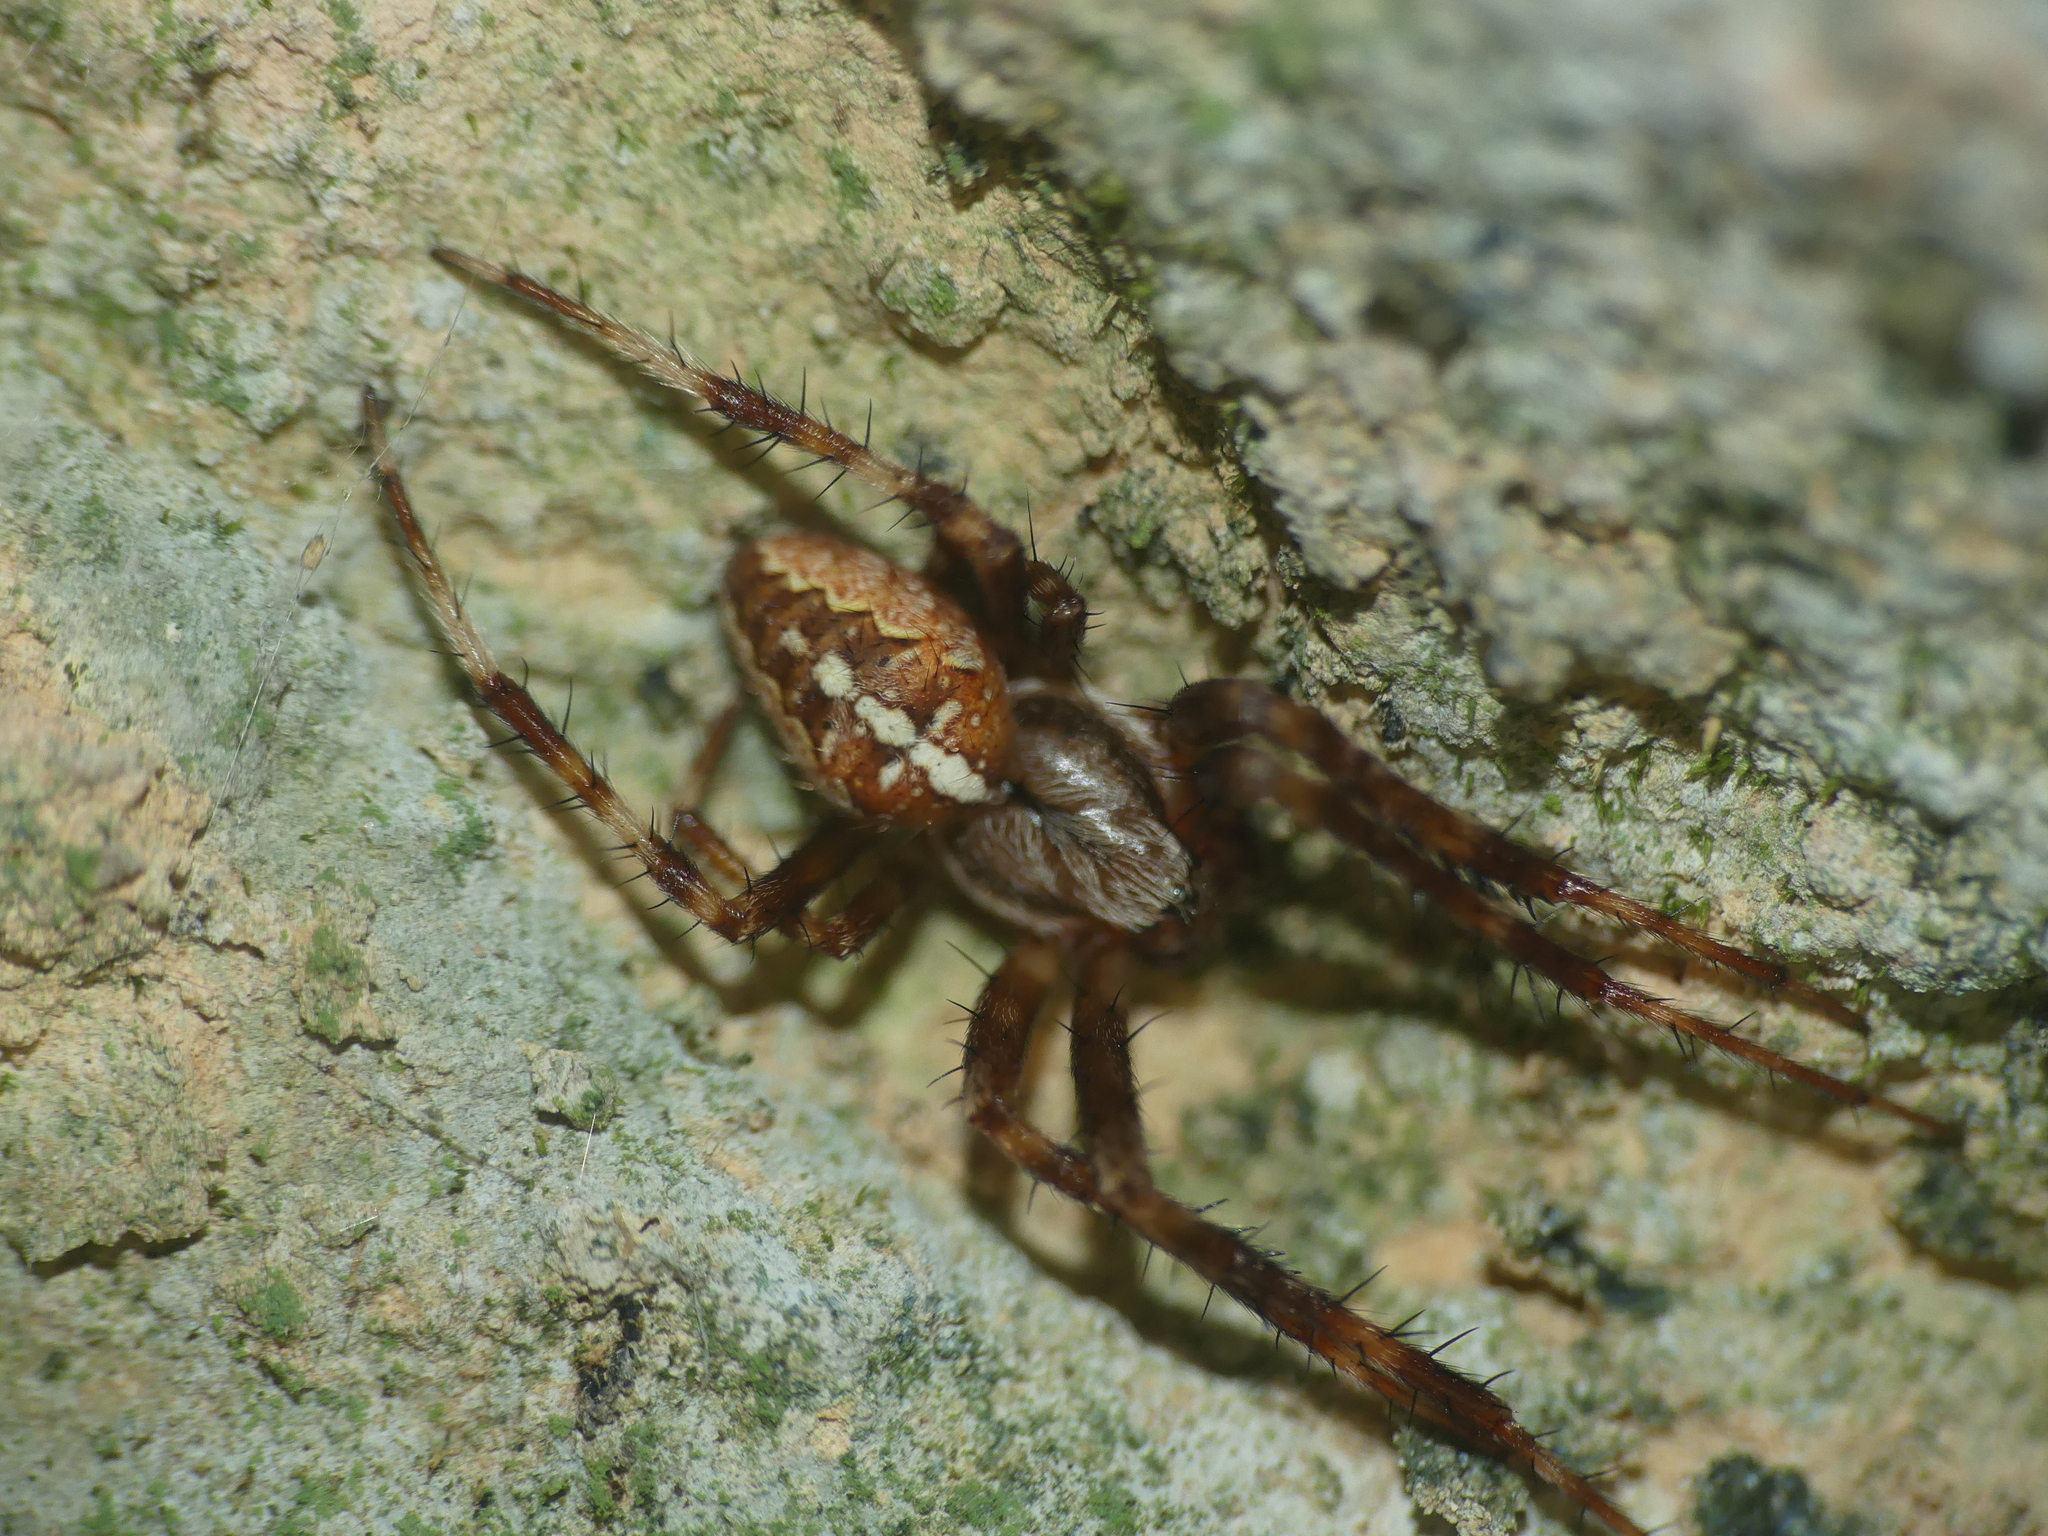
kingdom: Animalia
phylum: Arthropoda
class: Arachnida
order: Araneae
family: Araneidae
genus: Araneus
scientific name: Araneus diadematus
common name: Cross orbweaver
